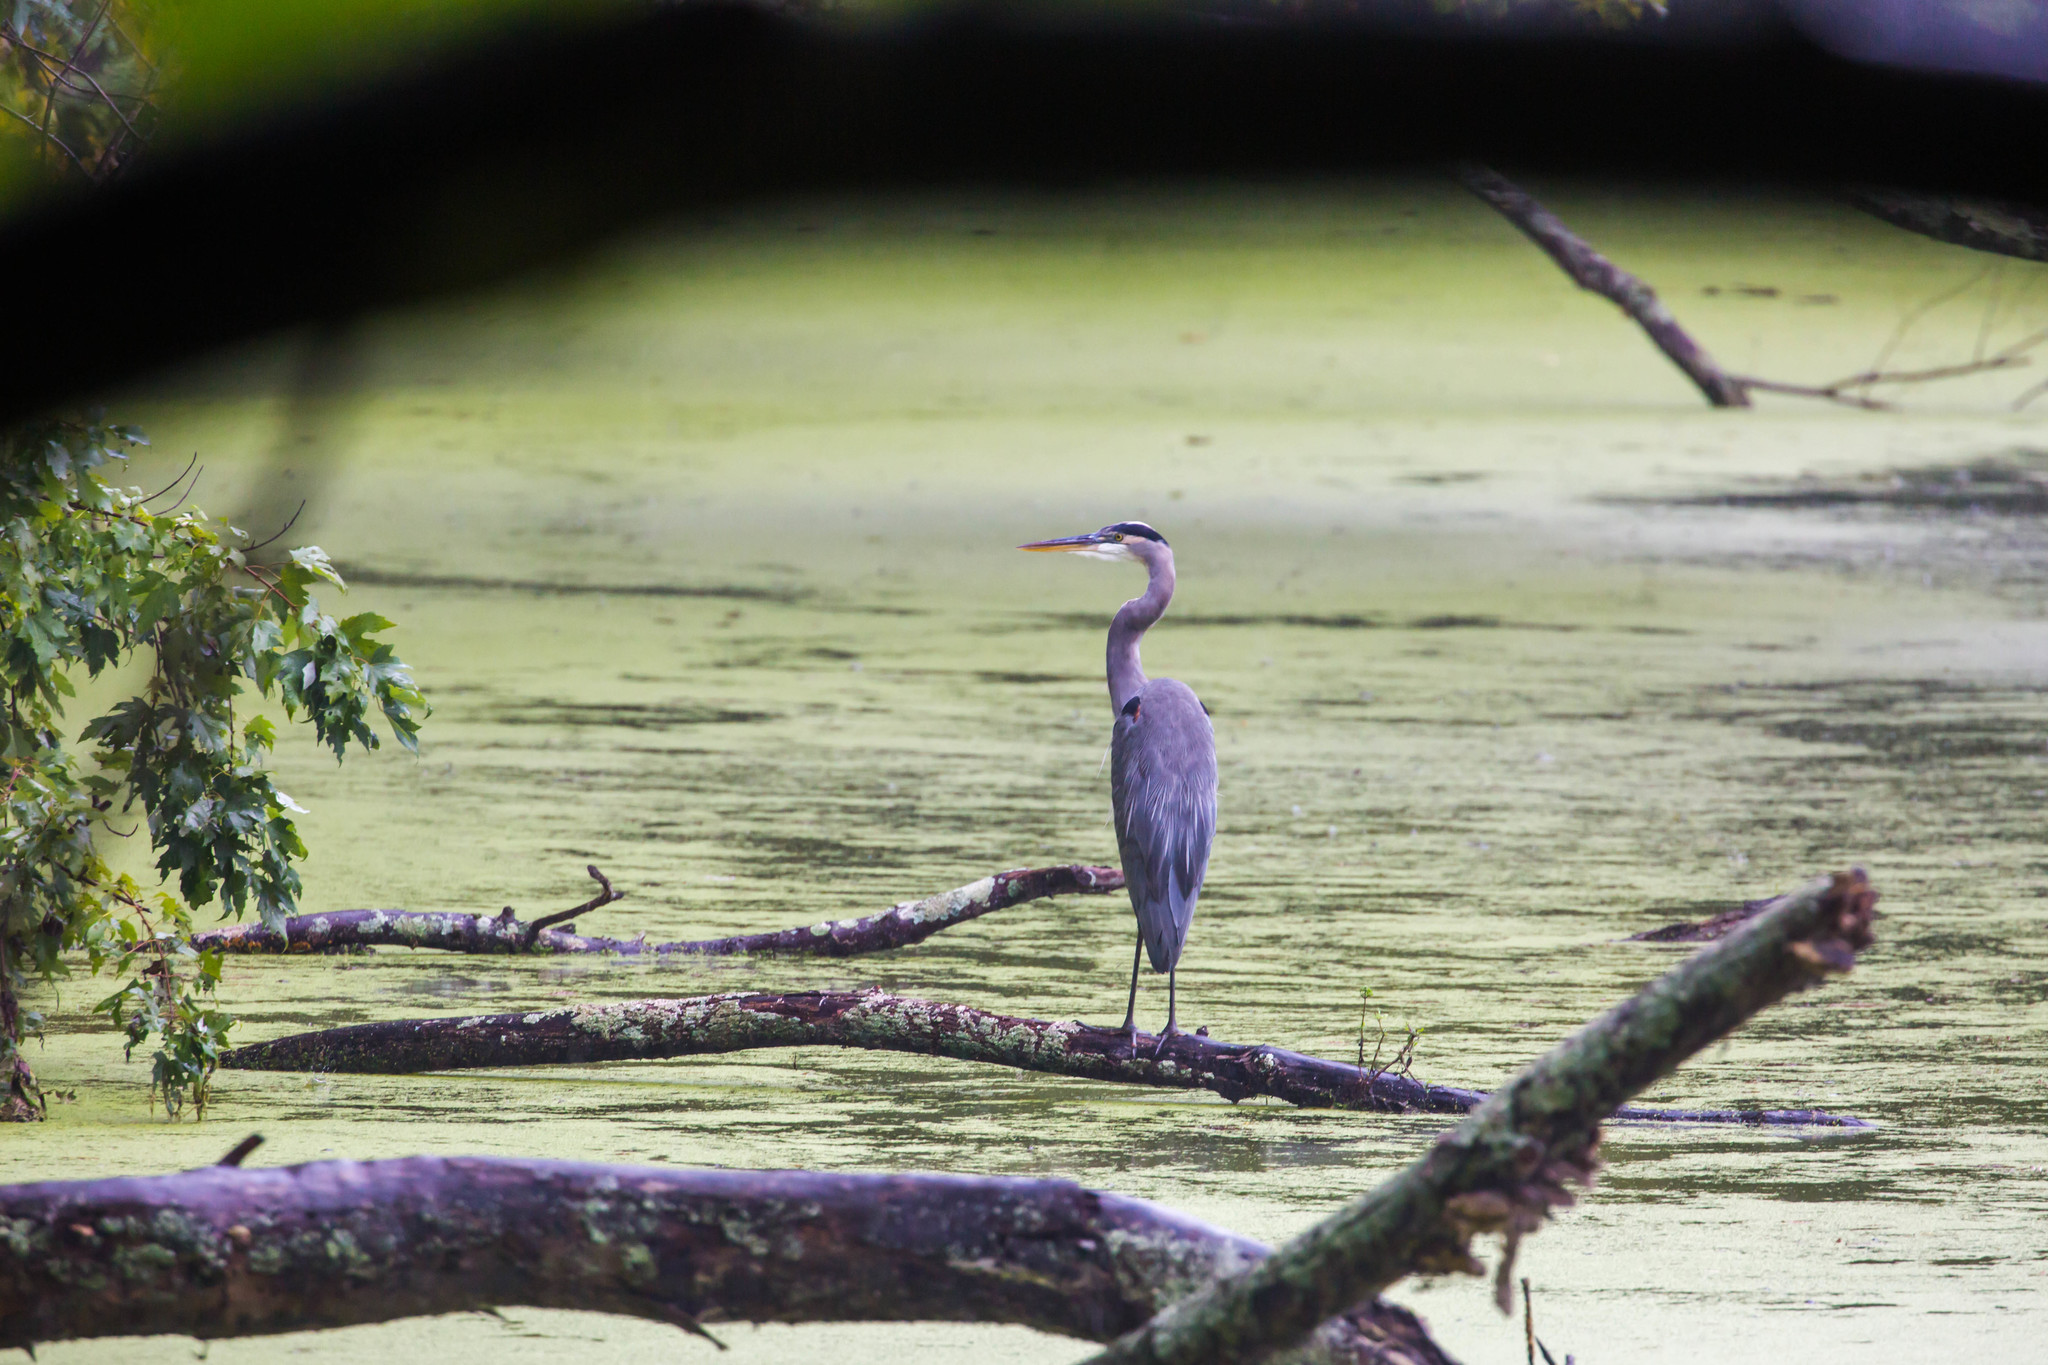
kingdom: Animalia
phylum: Chordata
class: Aves
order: Pelecaniformes
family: Ardeidae
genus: Ardea
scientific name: Ardea herodias
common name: Great blue heron
